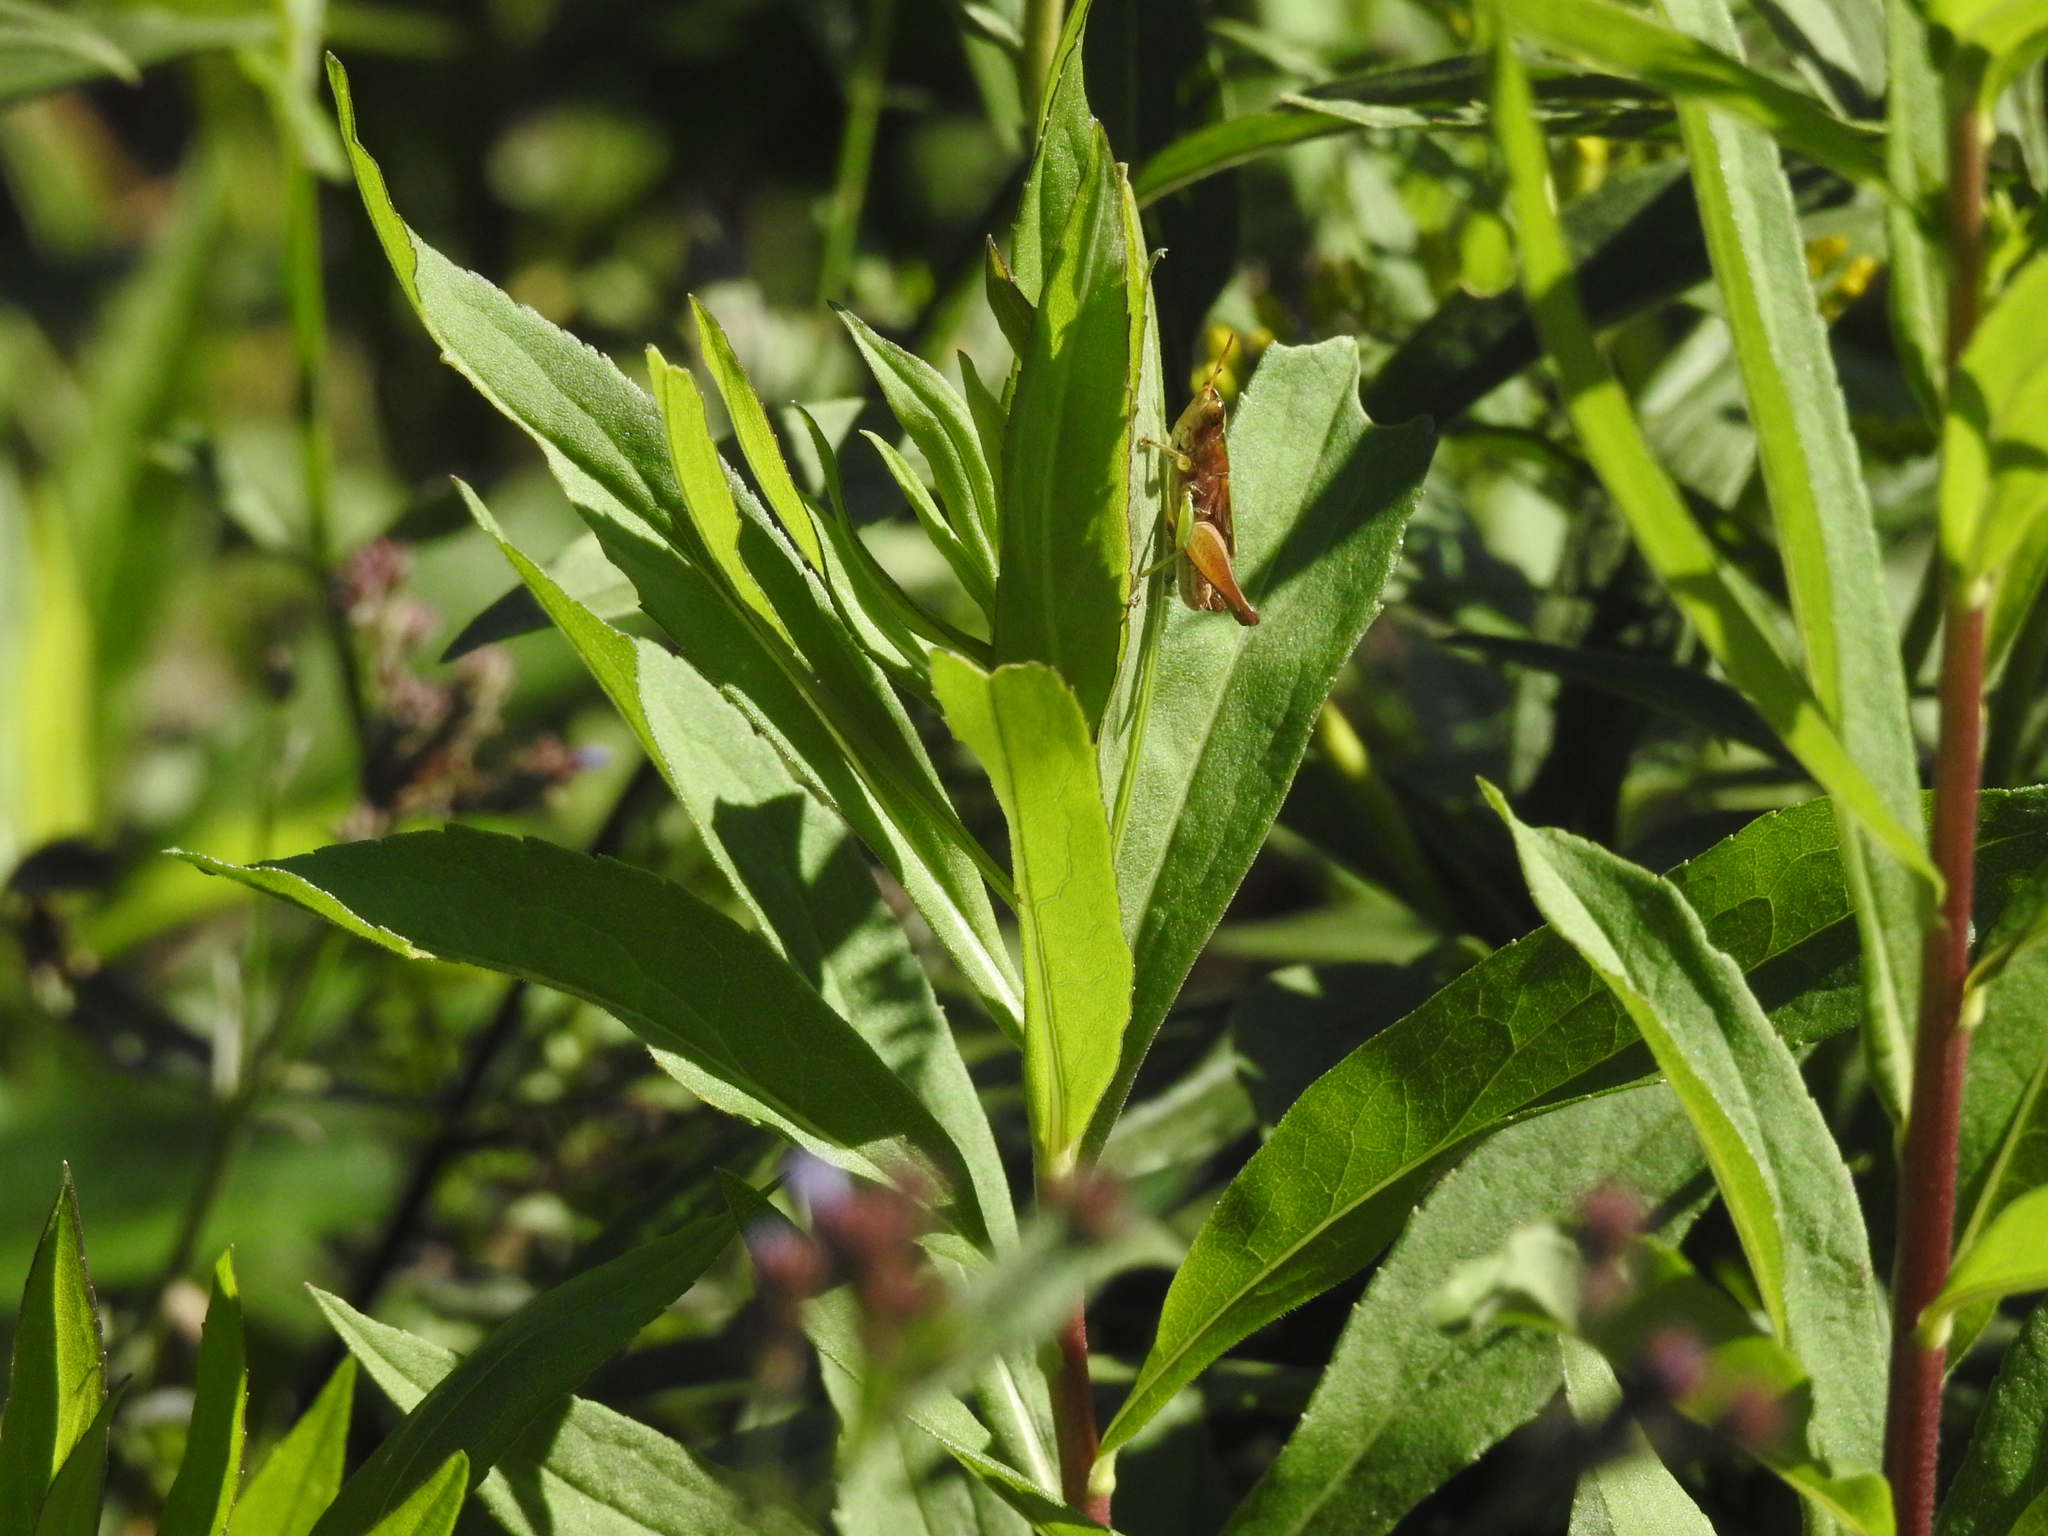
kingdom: Animalia
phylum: Arthropoda
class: Insecta
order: Orthoptera
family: Acrididae
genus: Dichromorpha
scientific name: Dichromorpha viridis
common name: Short-winged green grasshopper
